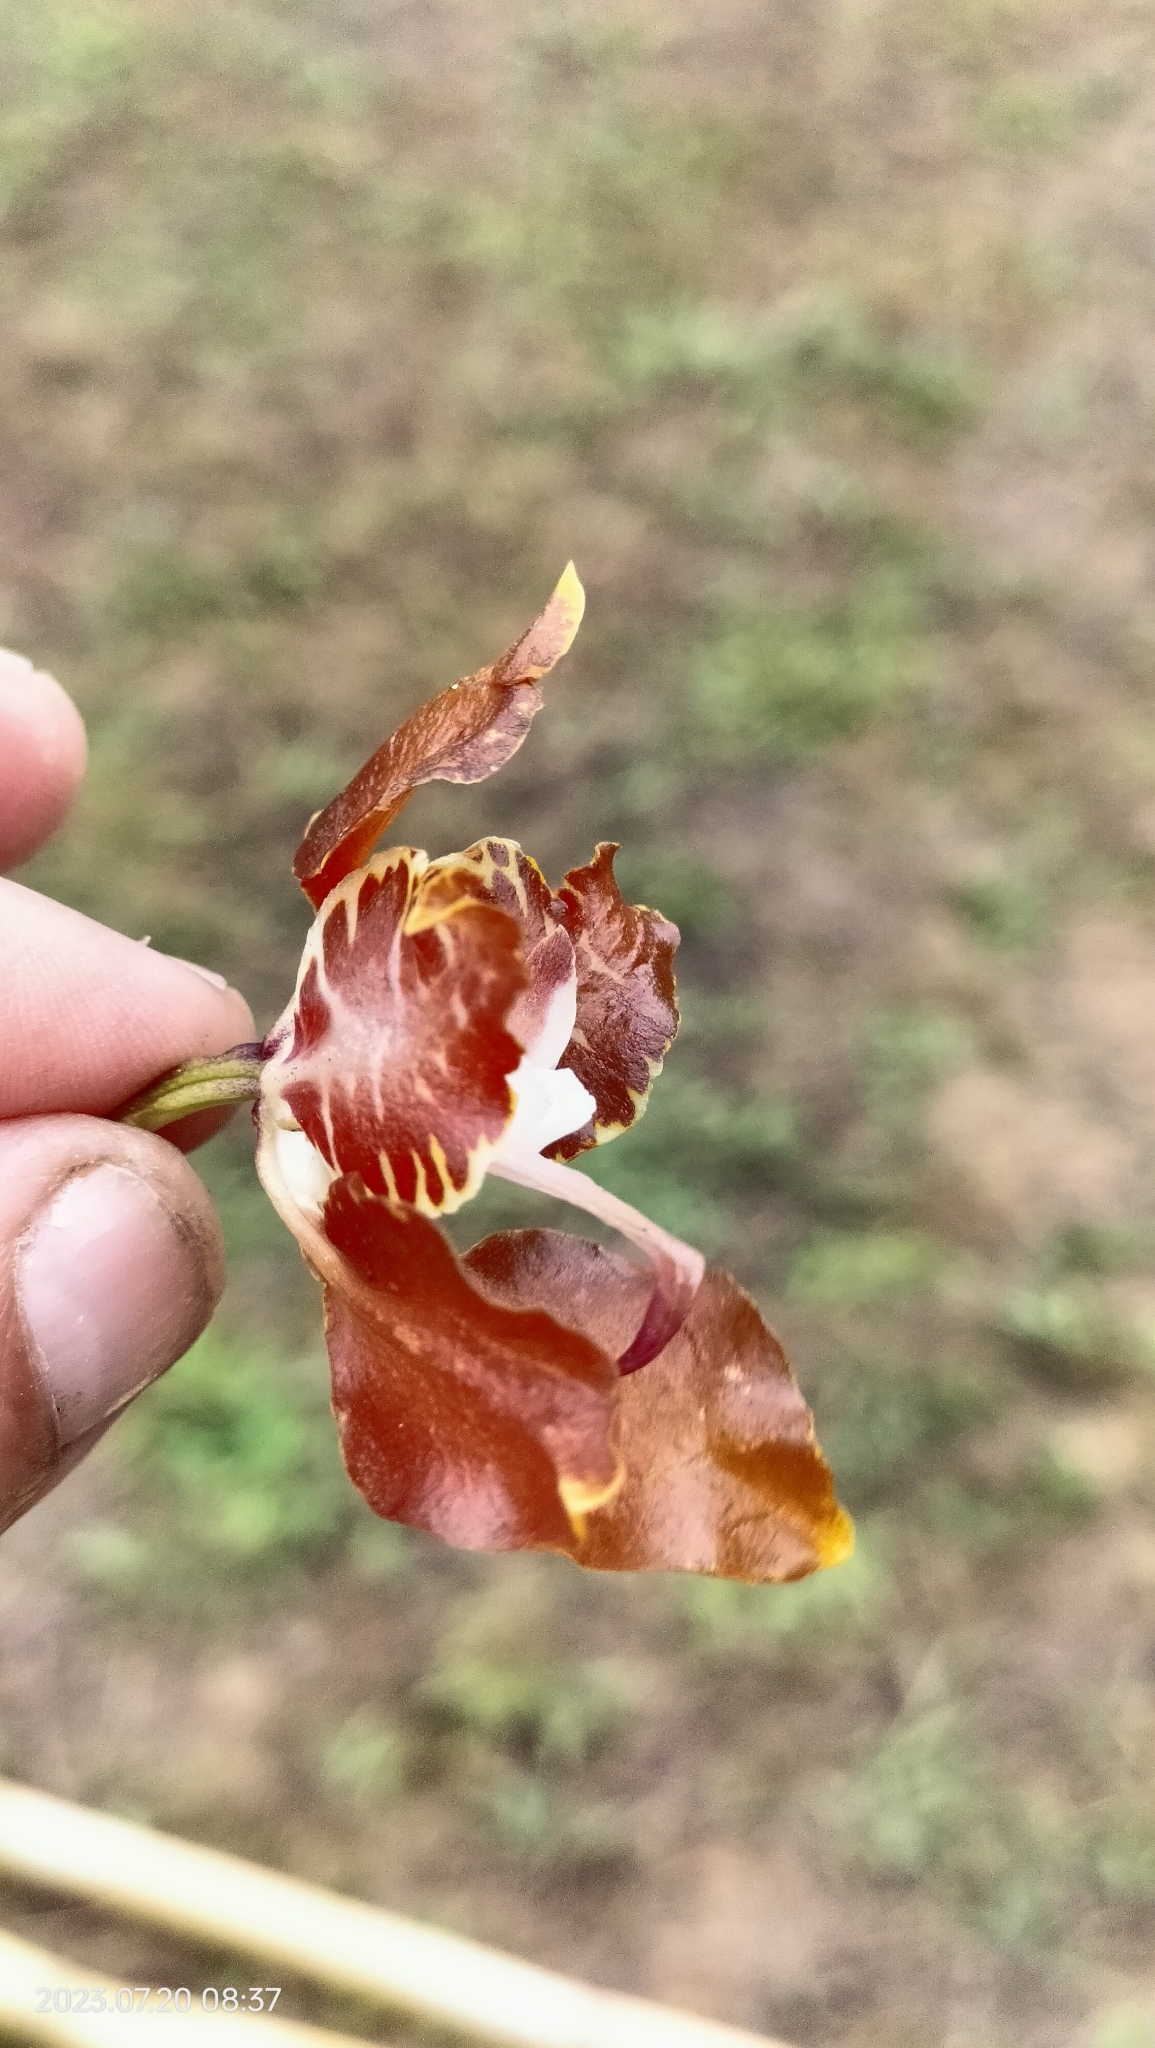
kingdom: Plantae
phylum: Tracheophyta
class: Liliopsida
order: Asparagales
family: Orchidaceae
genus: Cyrtochilum
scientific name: Cyrtochilum minax
